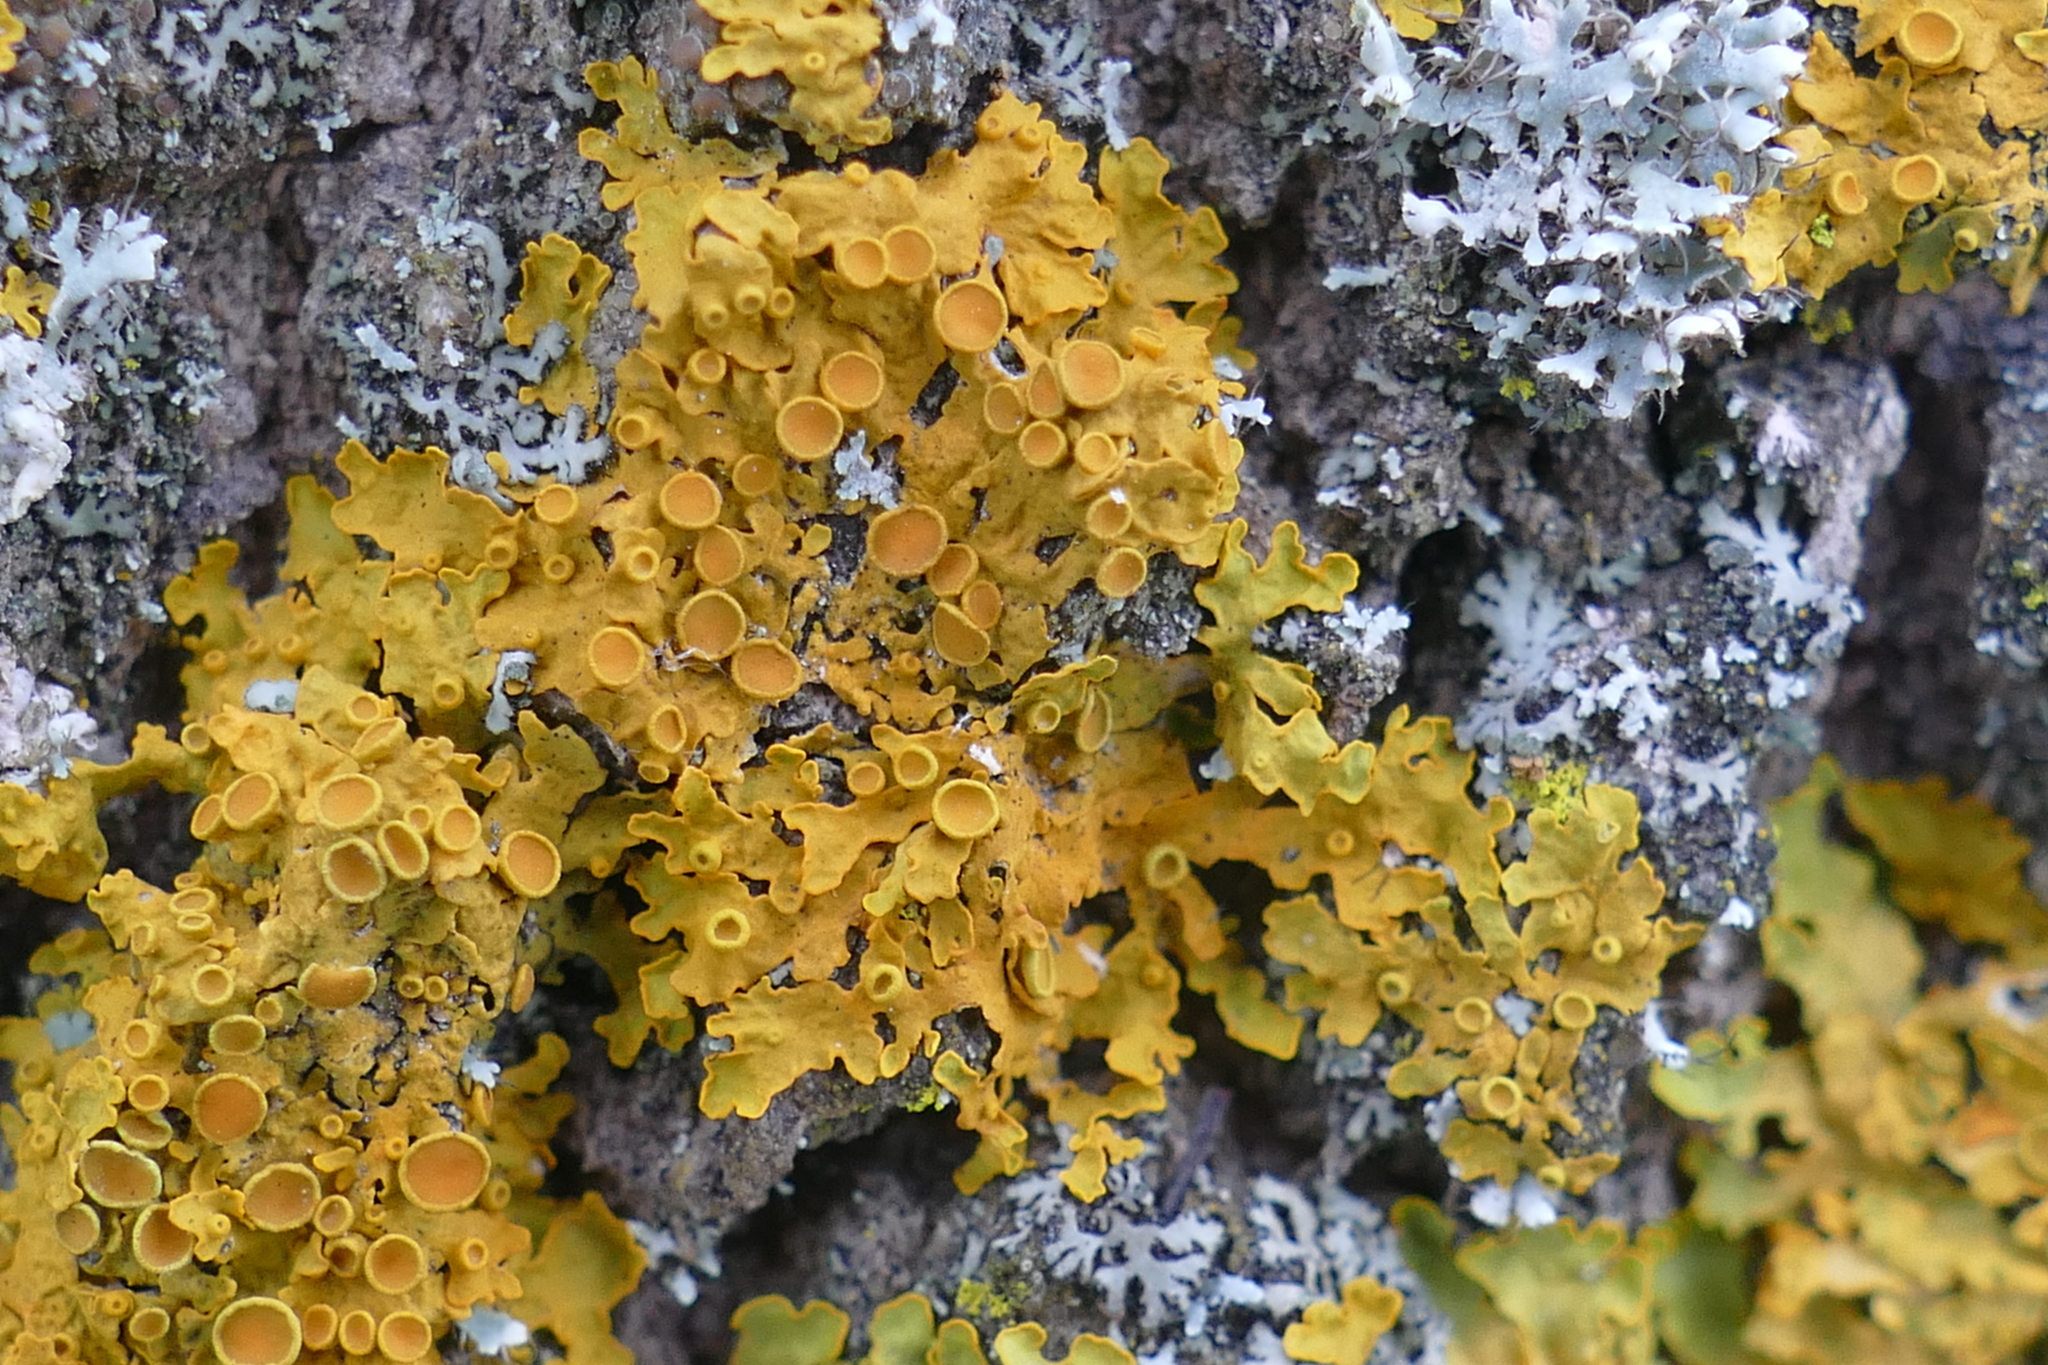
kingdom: Fungi
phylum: Ascomycota
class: Lecanoromycetes
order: Teloschistales
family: Teloschistaceae
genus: Xanthoria
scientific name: Xanthoria parietina
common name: Common orange lichen
